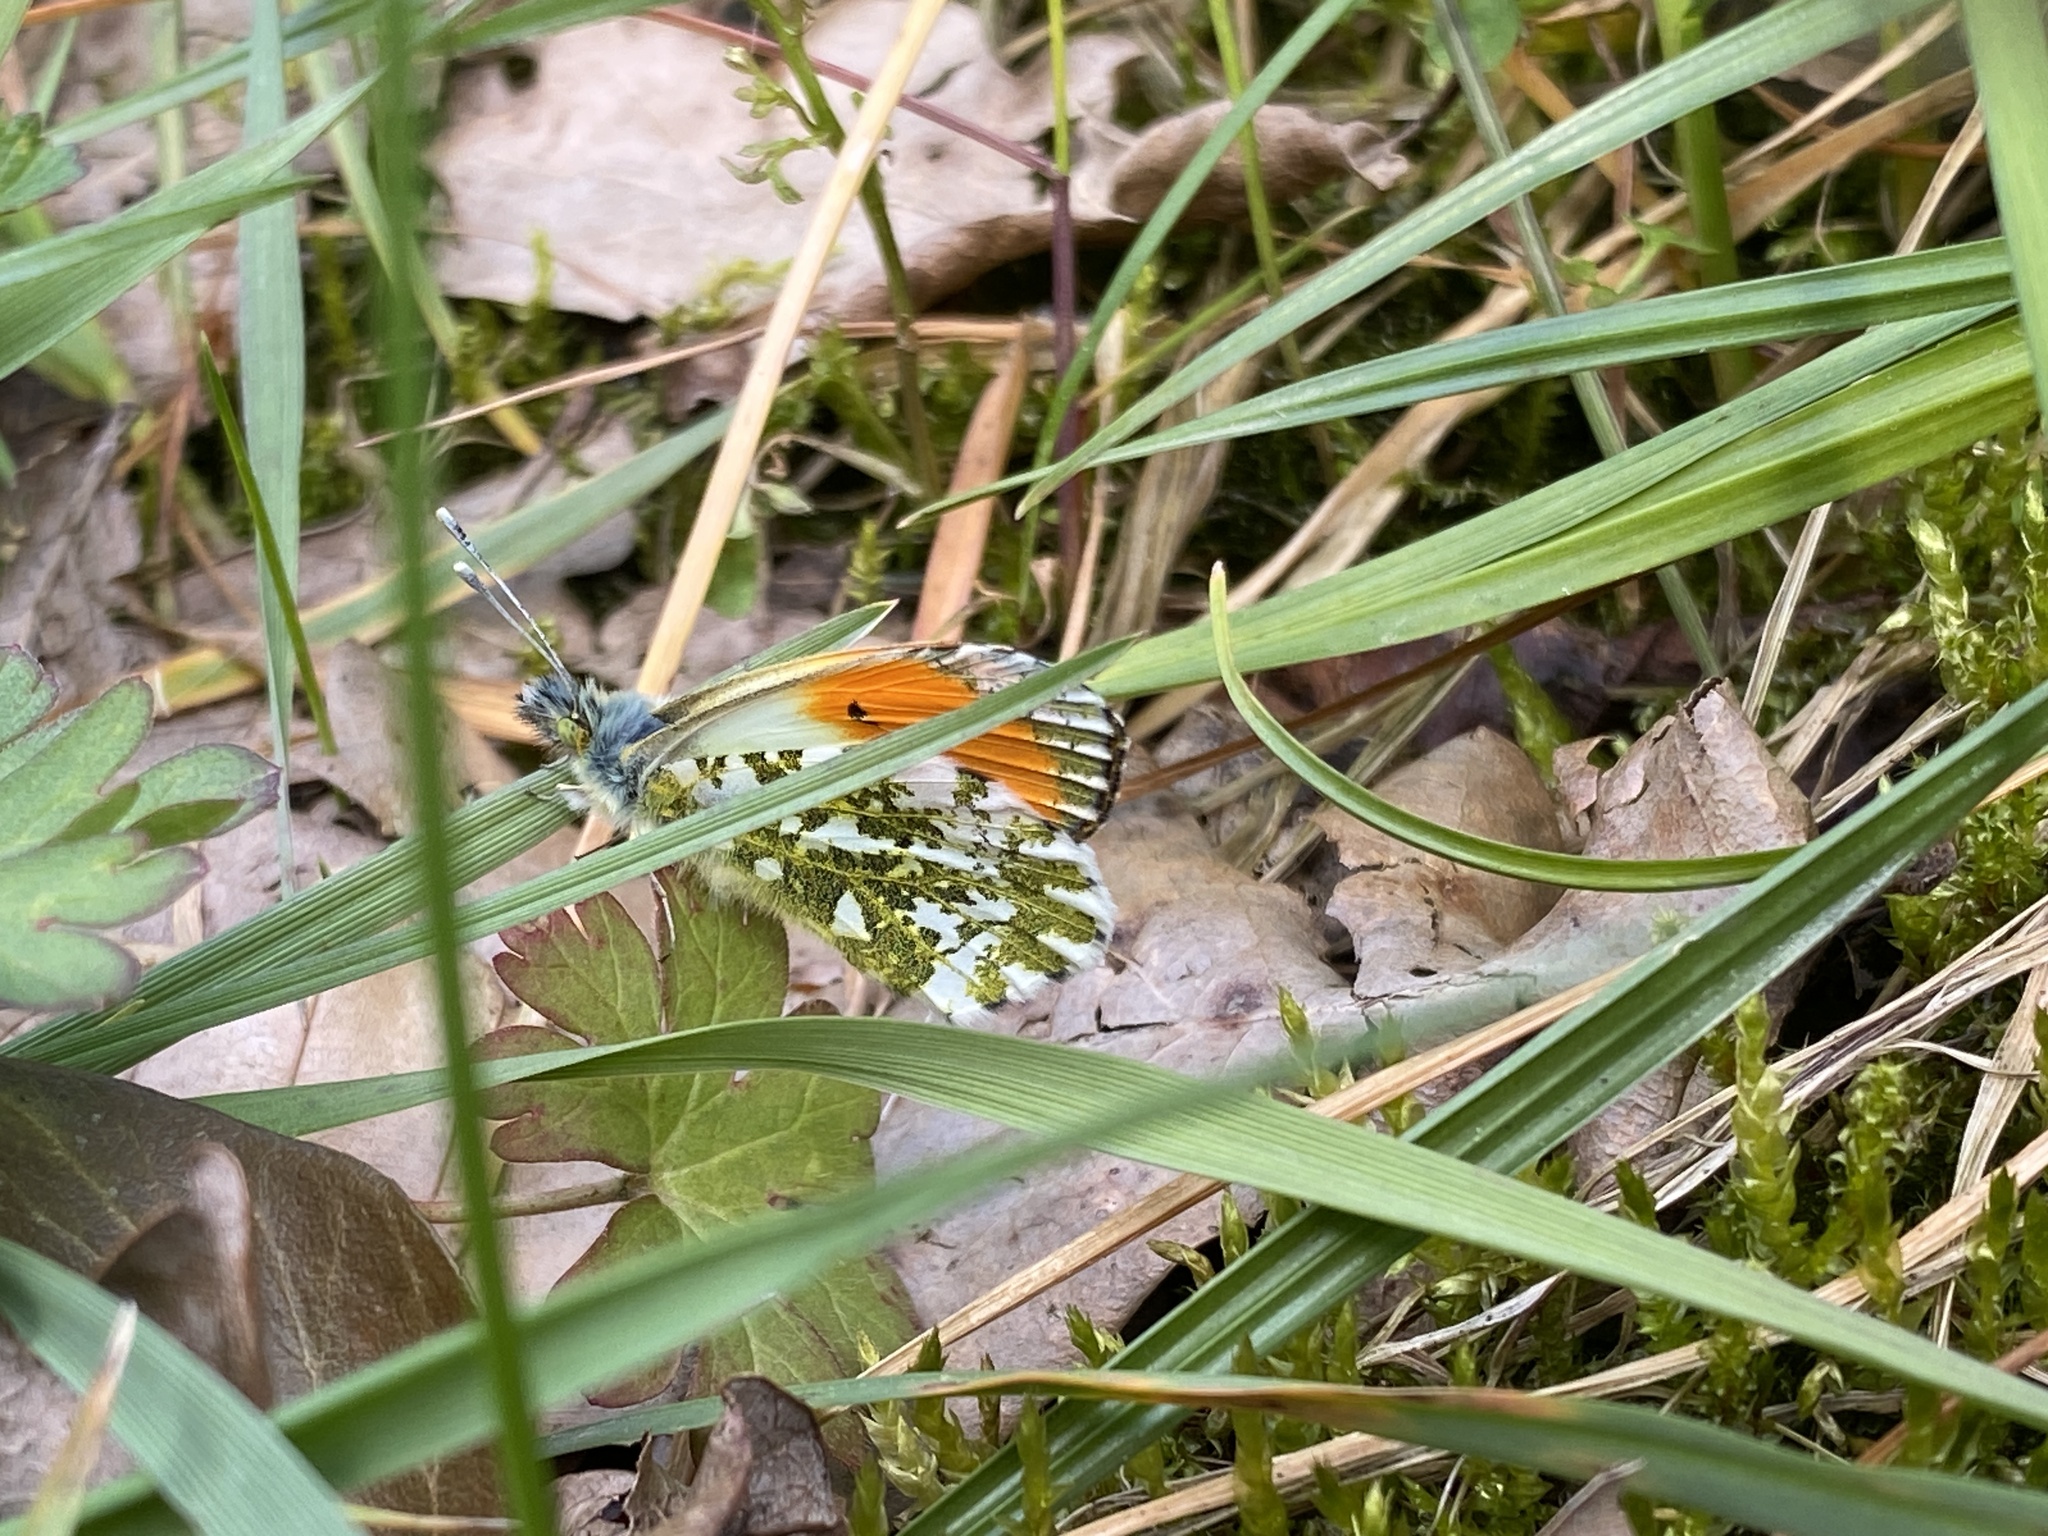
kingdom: Animalia
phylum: Arthropoda
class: Insecta
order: Lepidoptera
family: Pieridae
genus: Anthocharis
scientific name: Anthocharis cardamines
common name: Orange-tip
